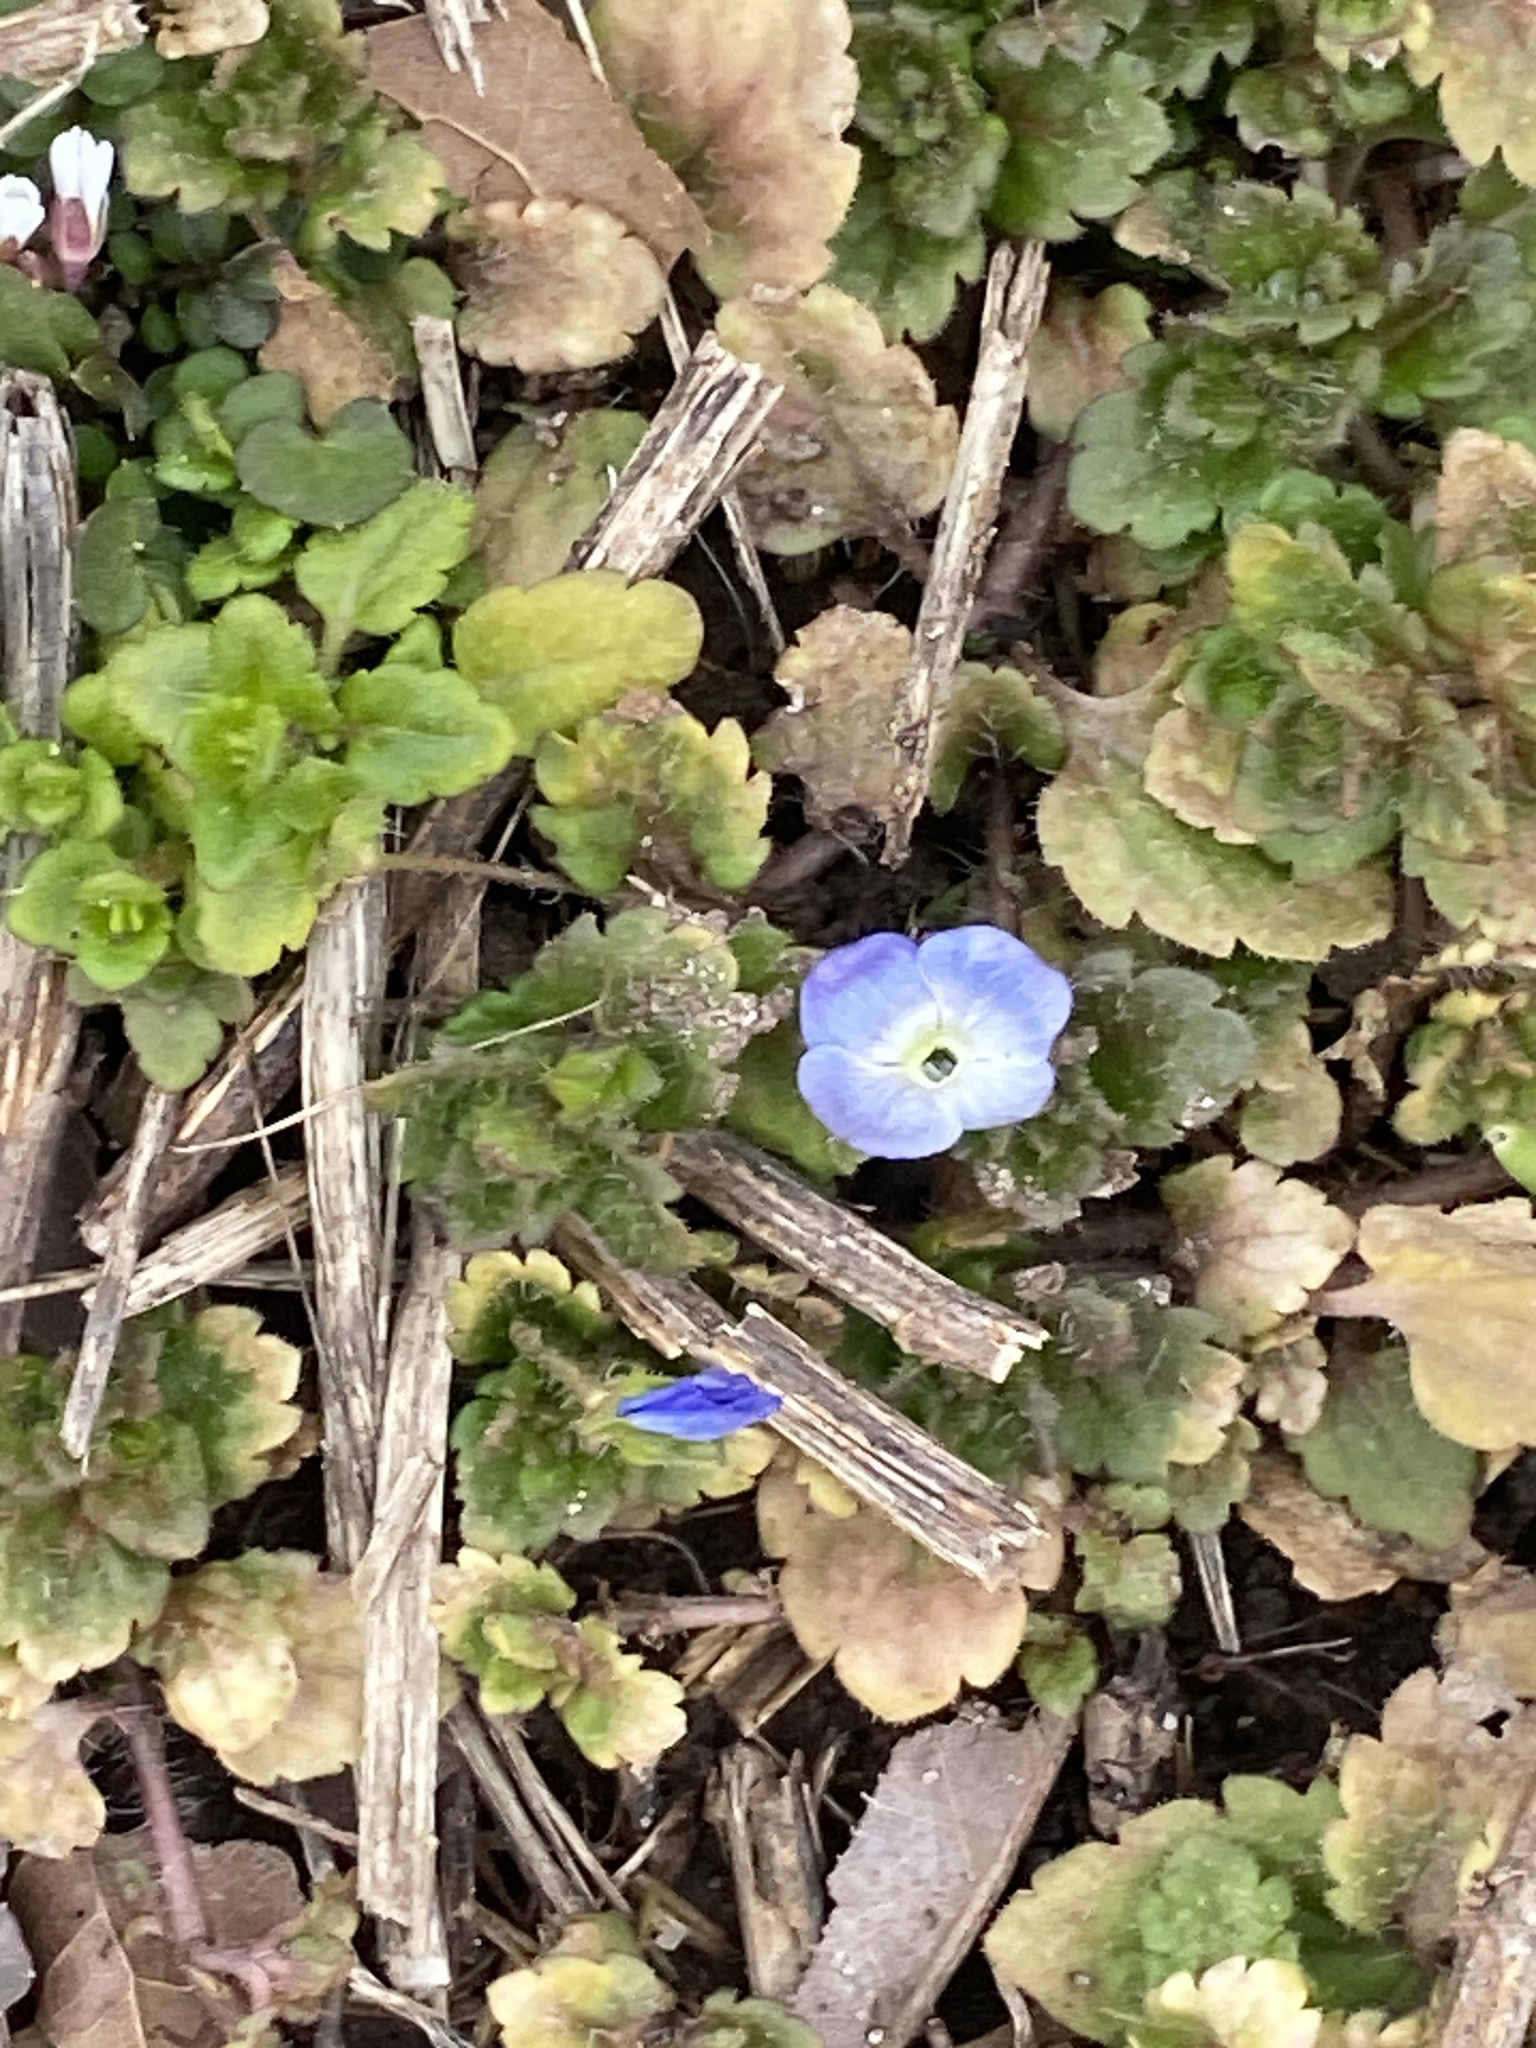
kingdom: Plantae
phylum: Tracheophyta
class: Magnoliopsida
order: Lamiales
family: Plantaginaceae
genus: Veronica
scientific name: Veronica persica
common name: Common field-speedwell
